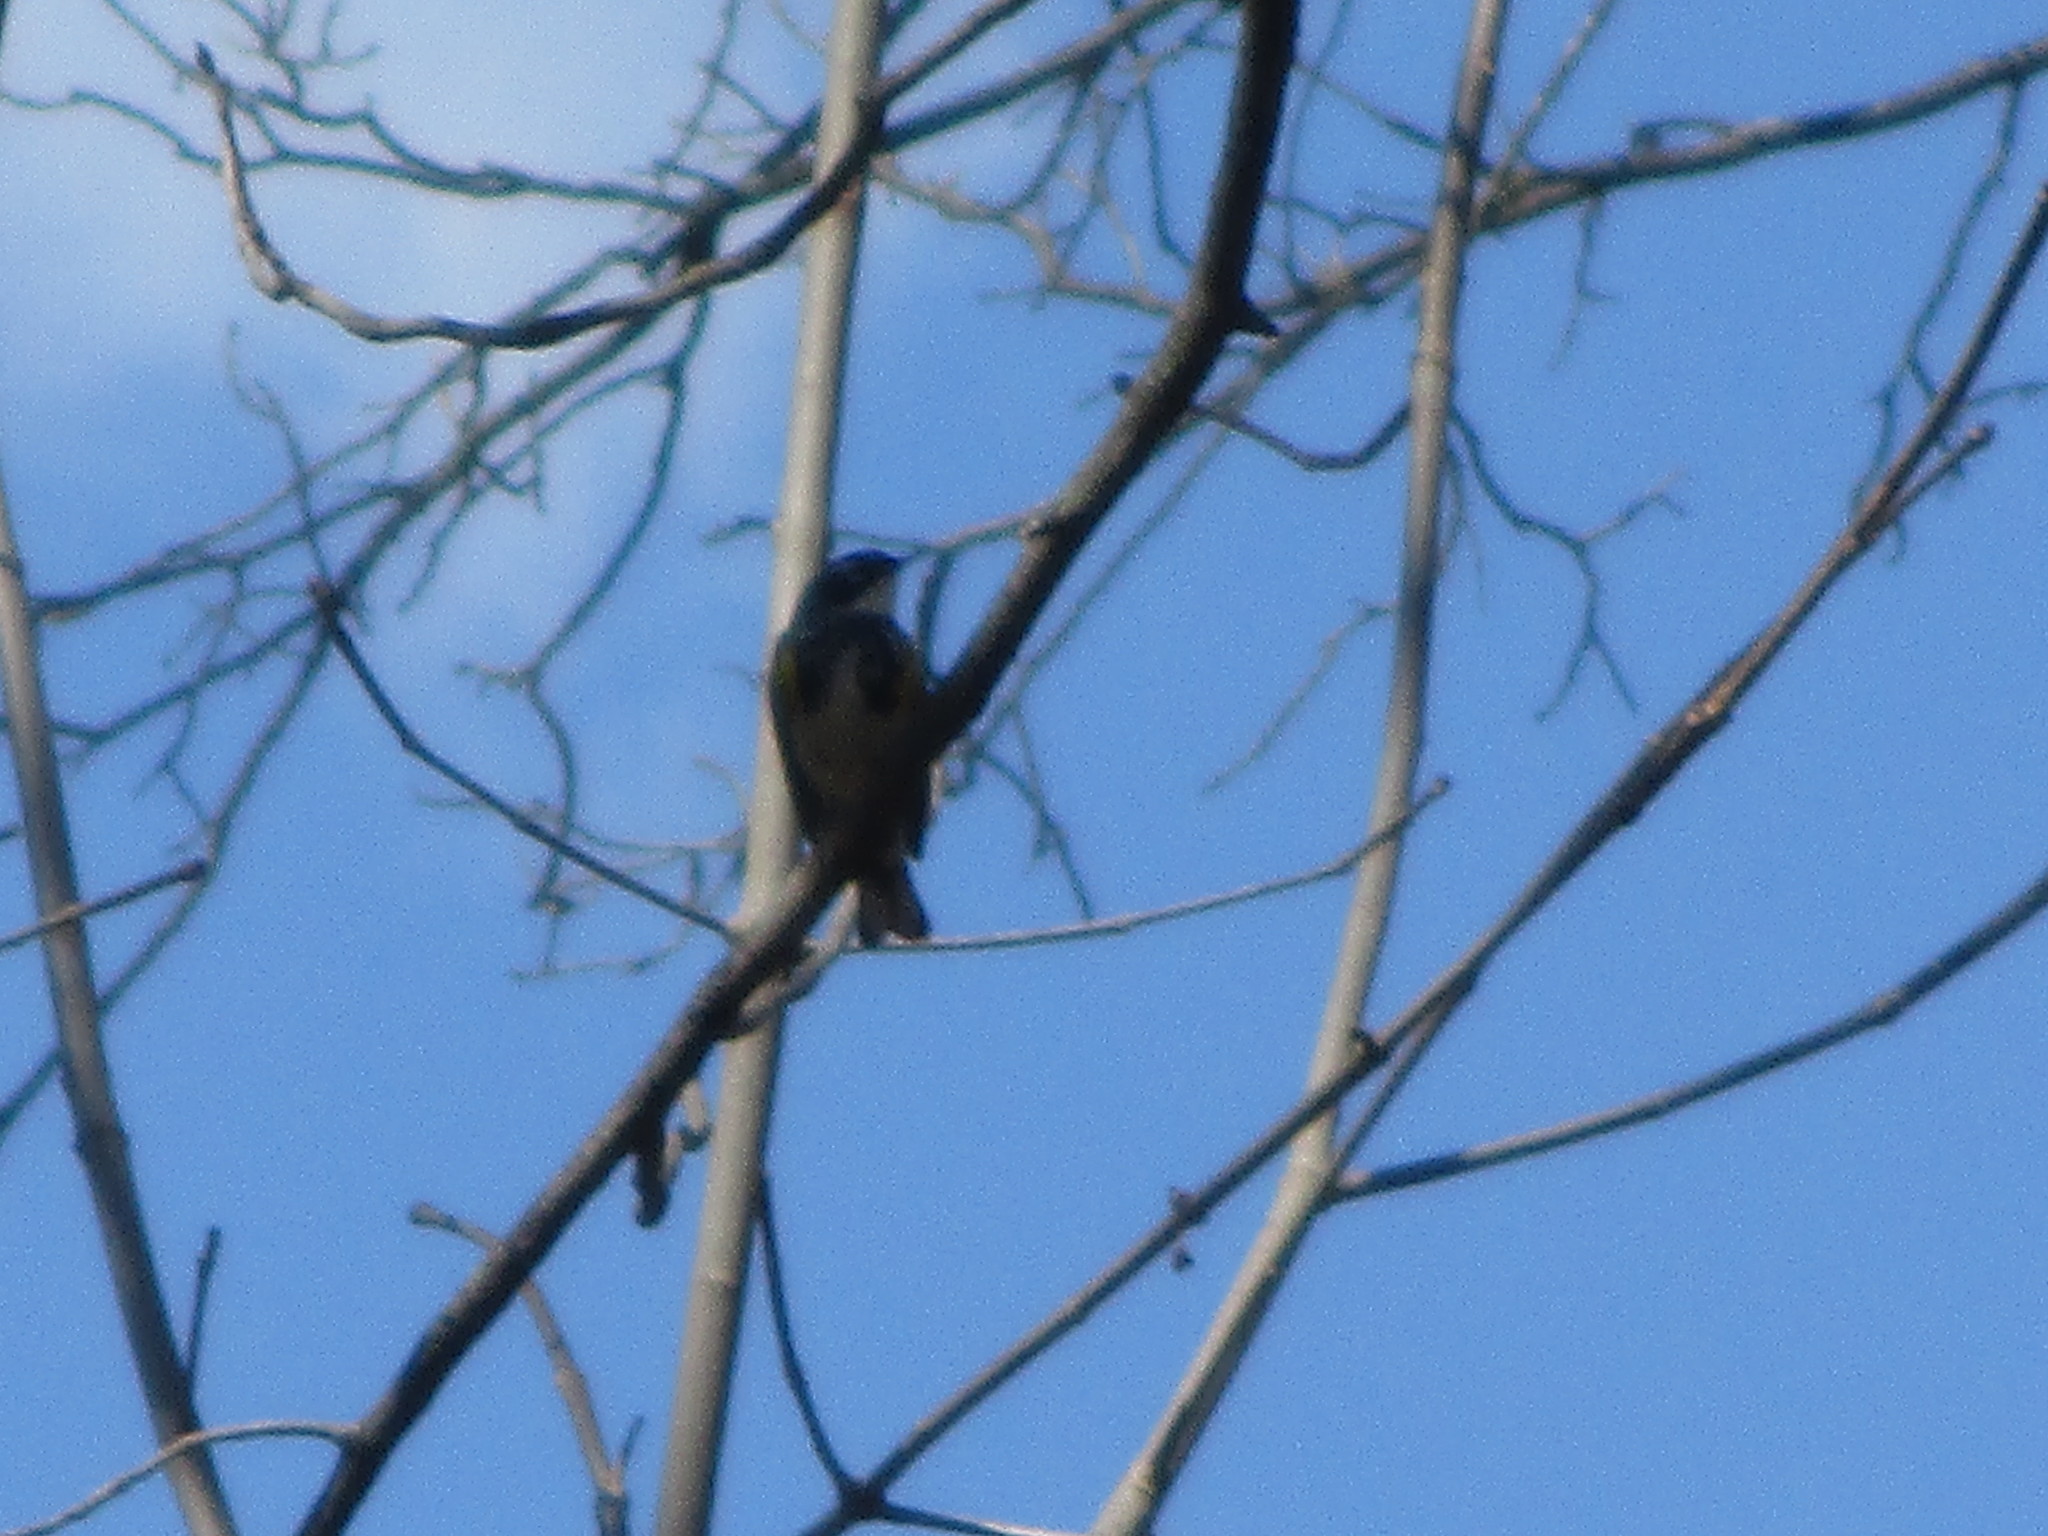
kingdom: Animalia
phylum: Chordata
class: Aves
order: Passeriformes
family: Parulidae
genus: Setophaga
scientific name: Setophaga coronata
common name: Myrtle warbler
